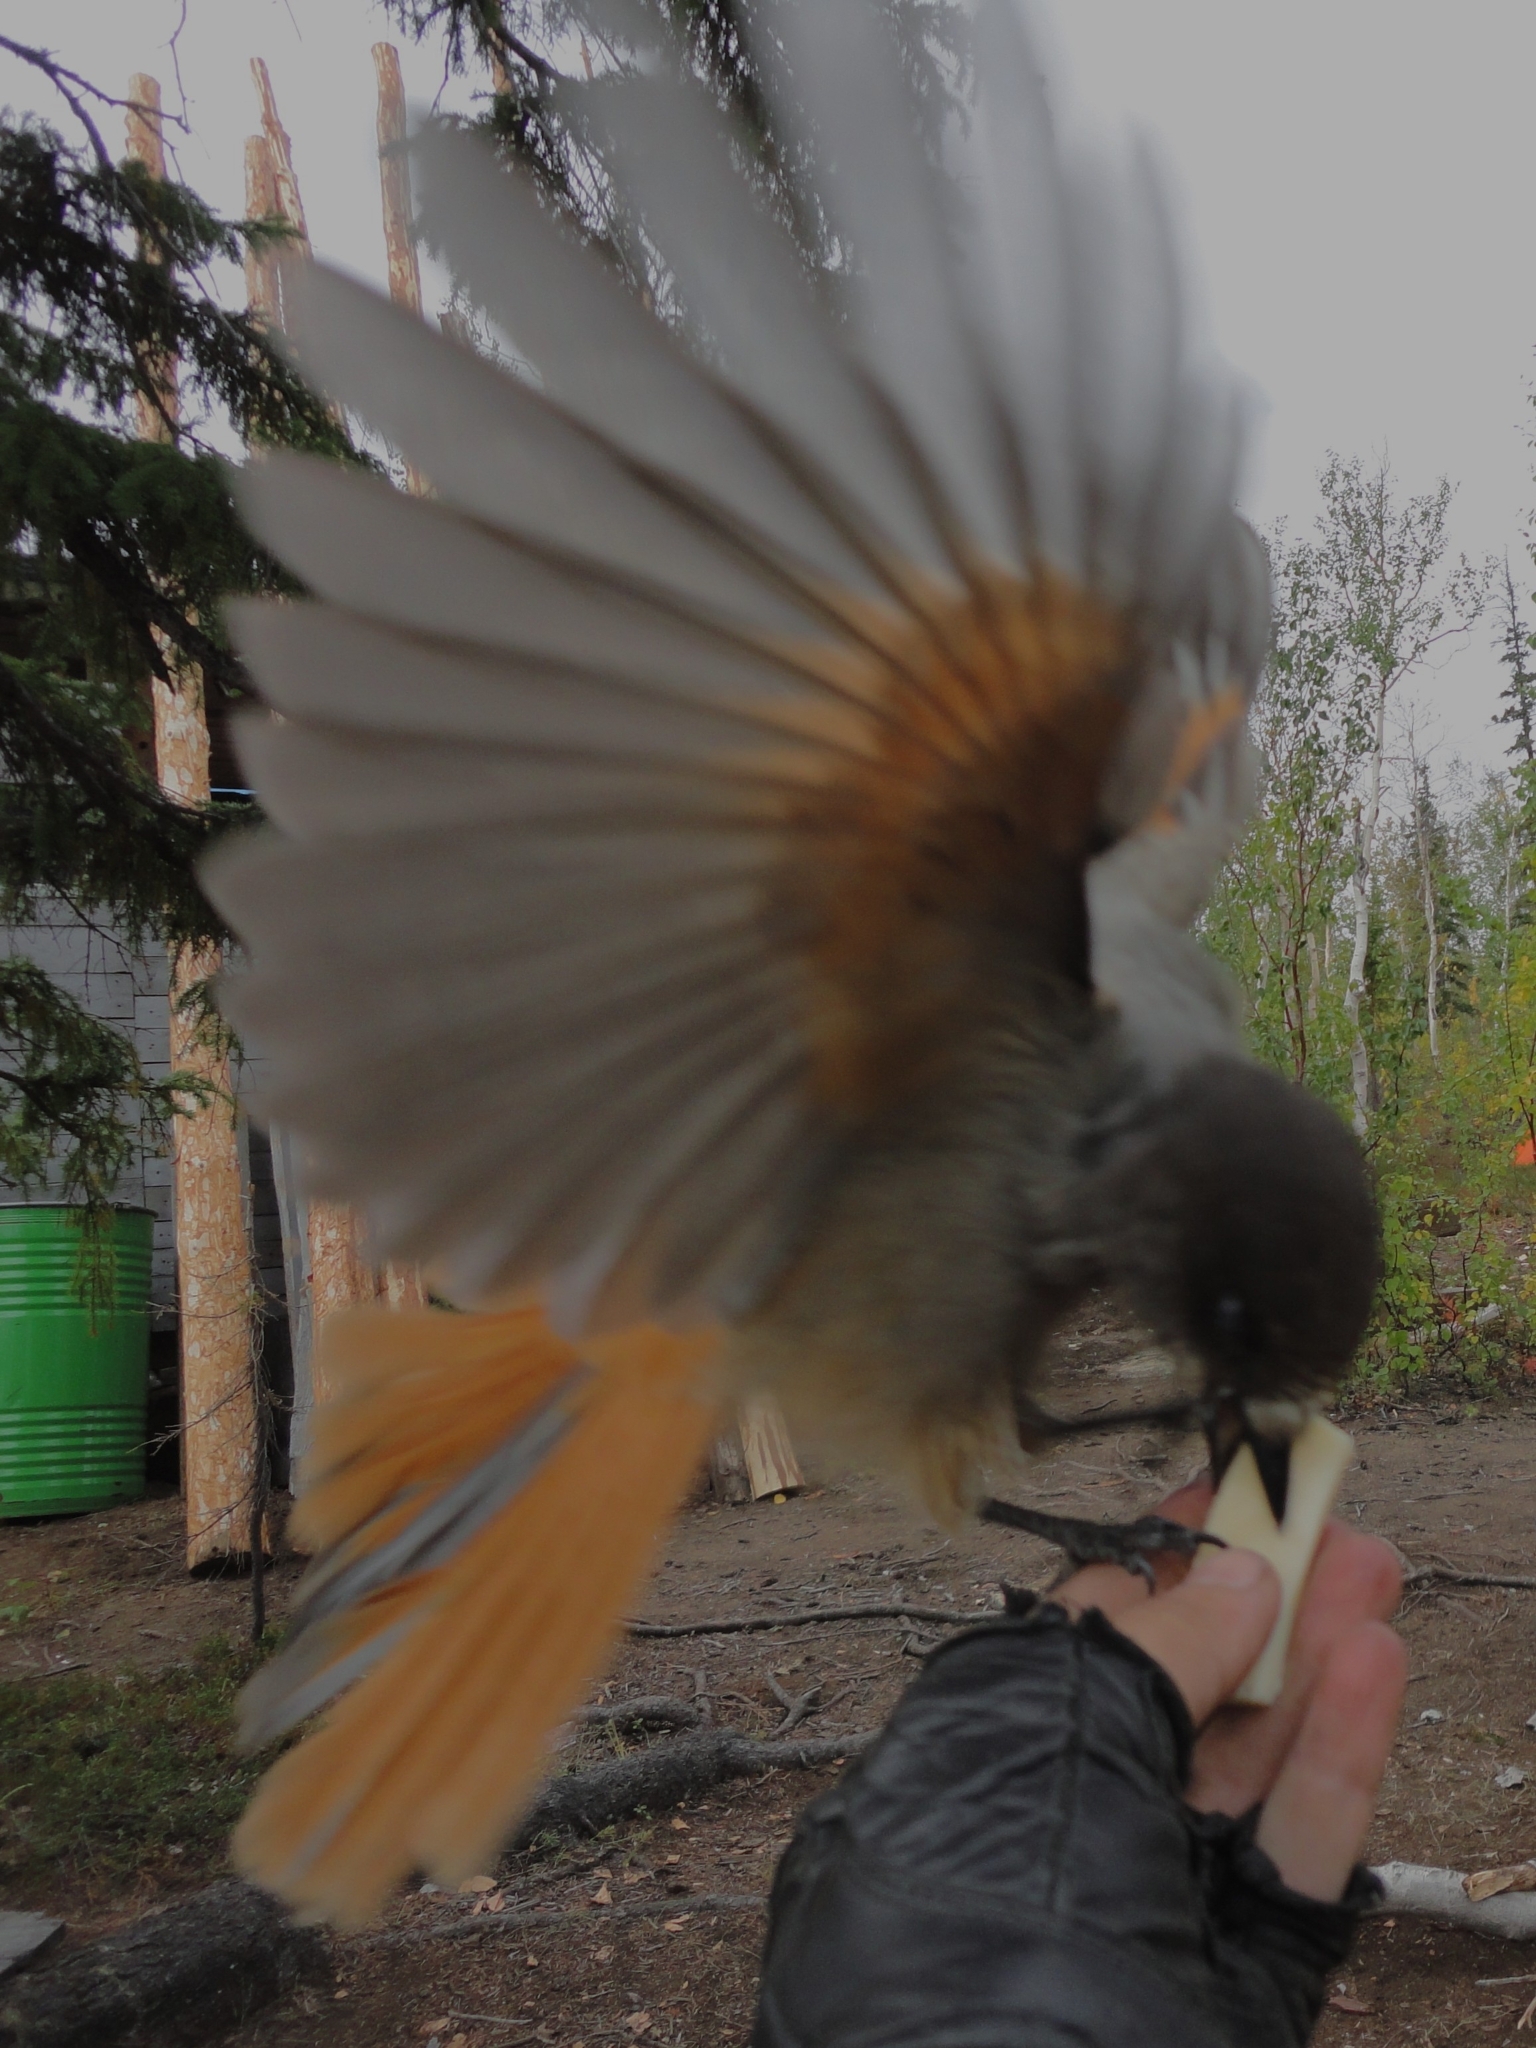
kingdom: Animalia
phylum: Chordata
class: Aves
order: Passeriformes
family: Corvidae
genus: Perisoreus
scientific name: Perisoreus infaustus
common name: Siberian jay
